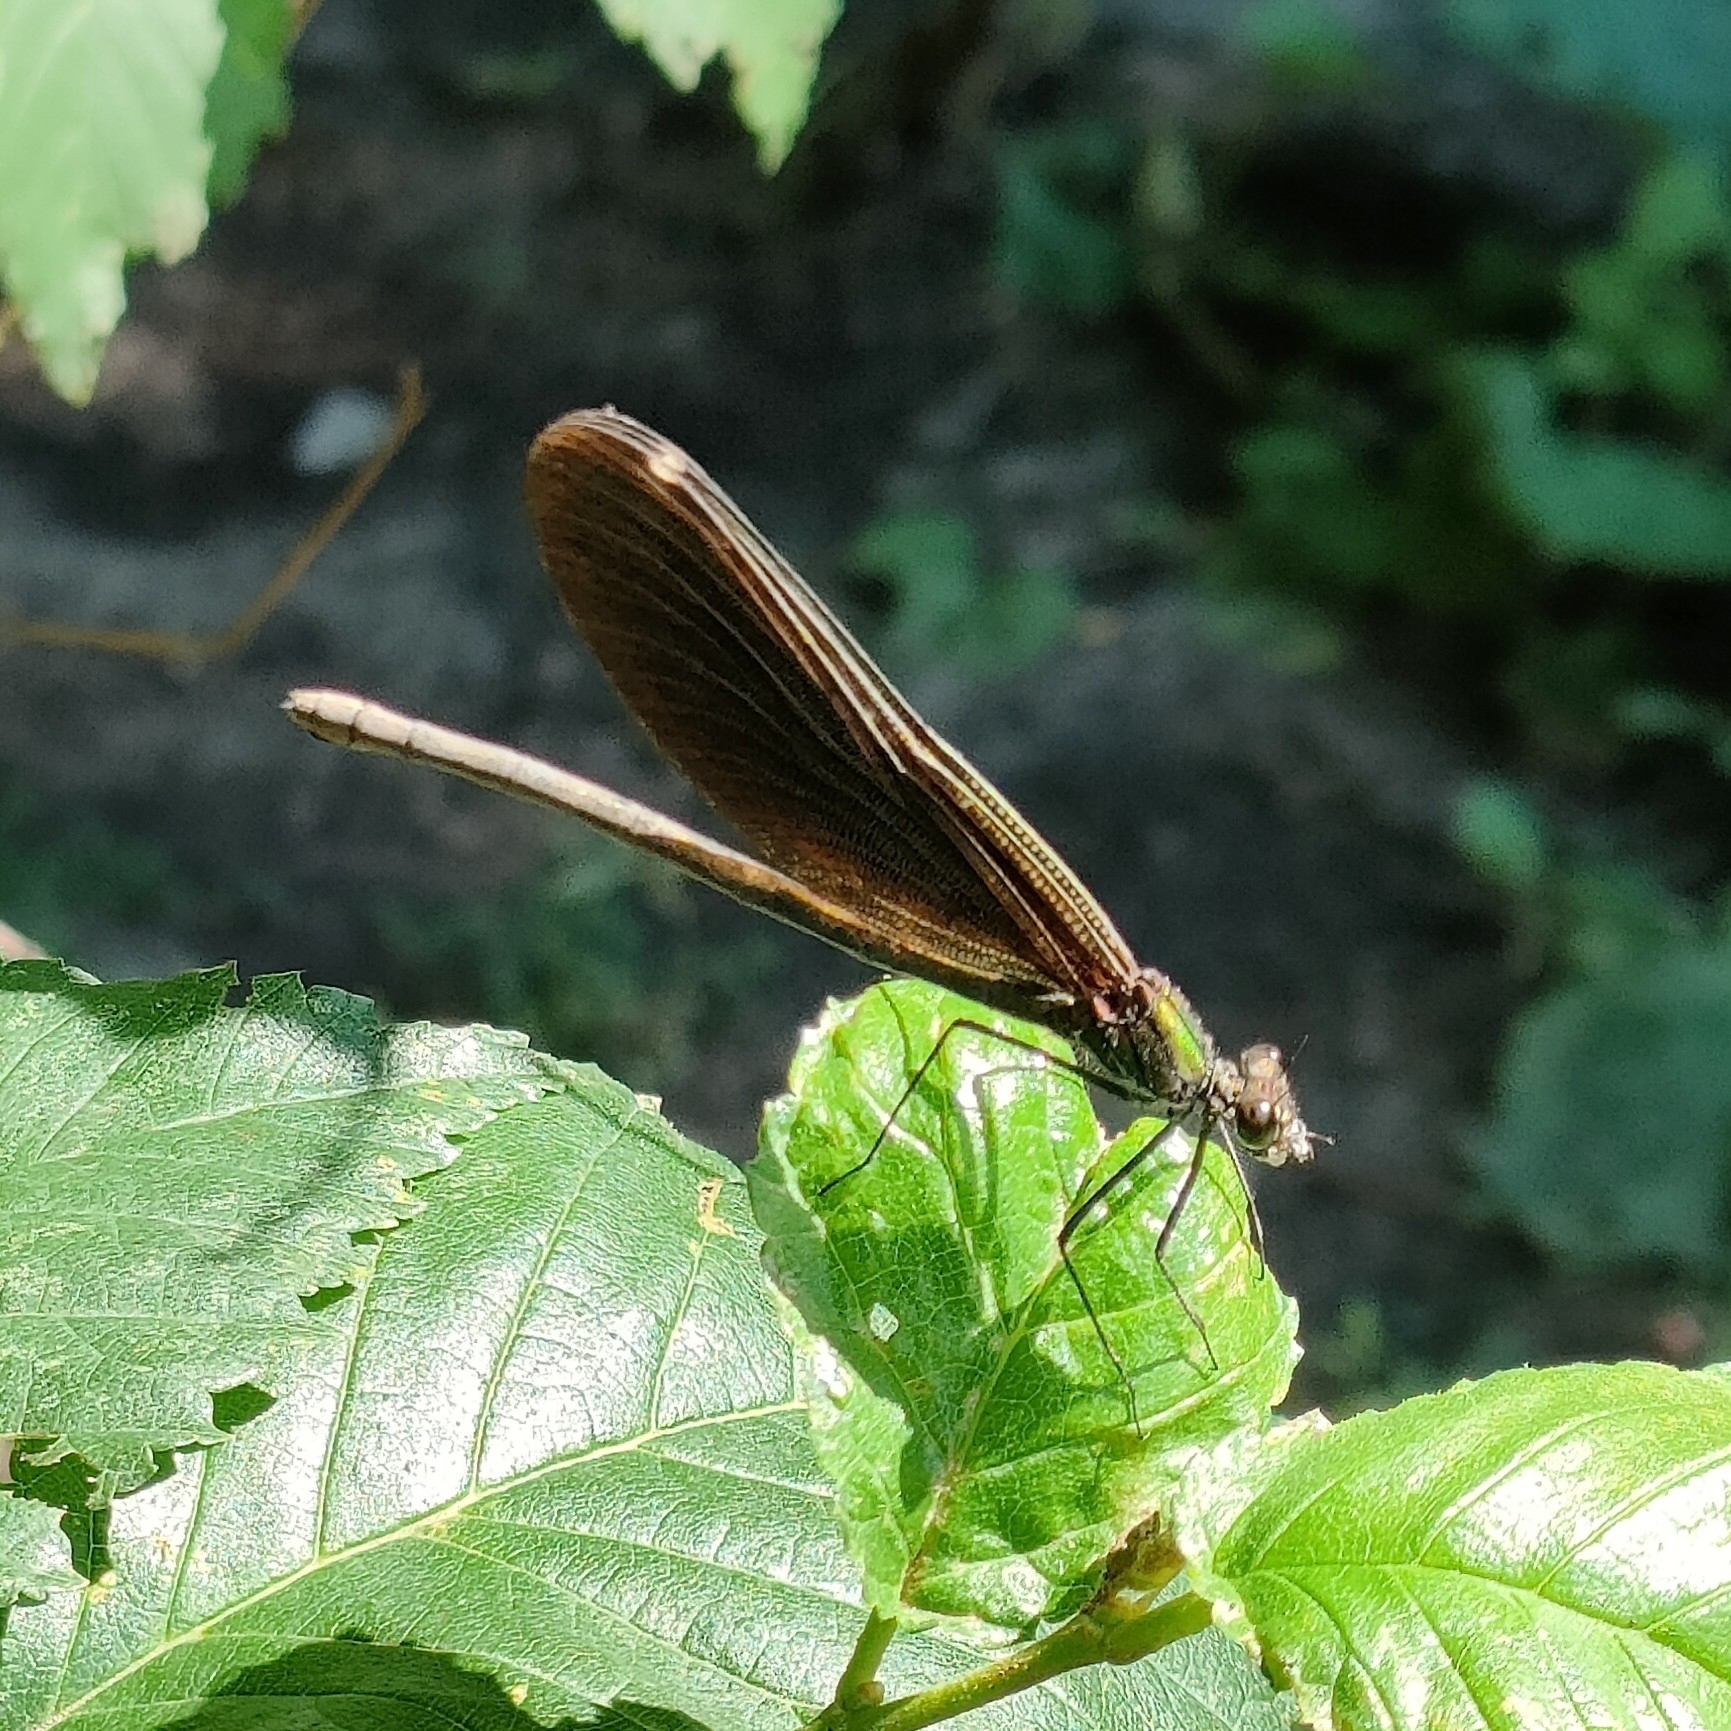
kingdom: Animalia
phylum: Arthropoda
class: Insecta
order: Odonata
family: Calopterygidae
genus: Calopteryx
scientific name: Calopteryx virgo
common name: Beautiful demoiselle
